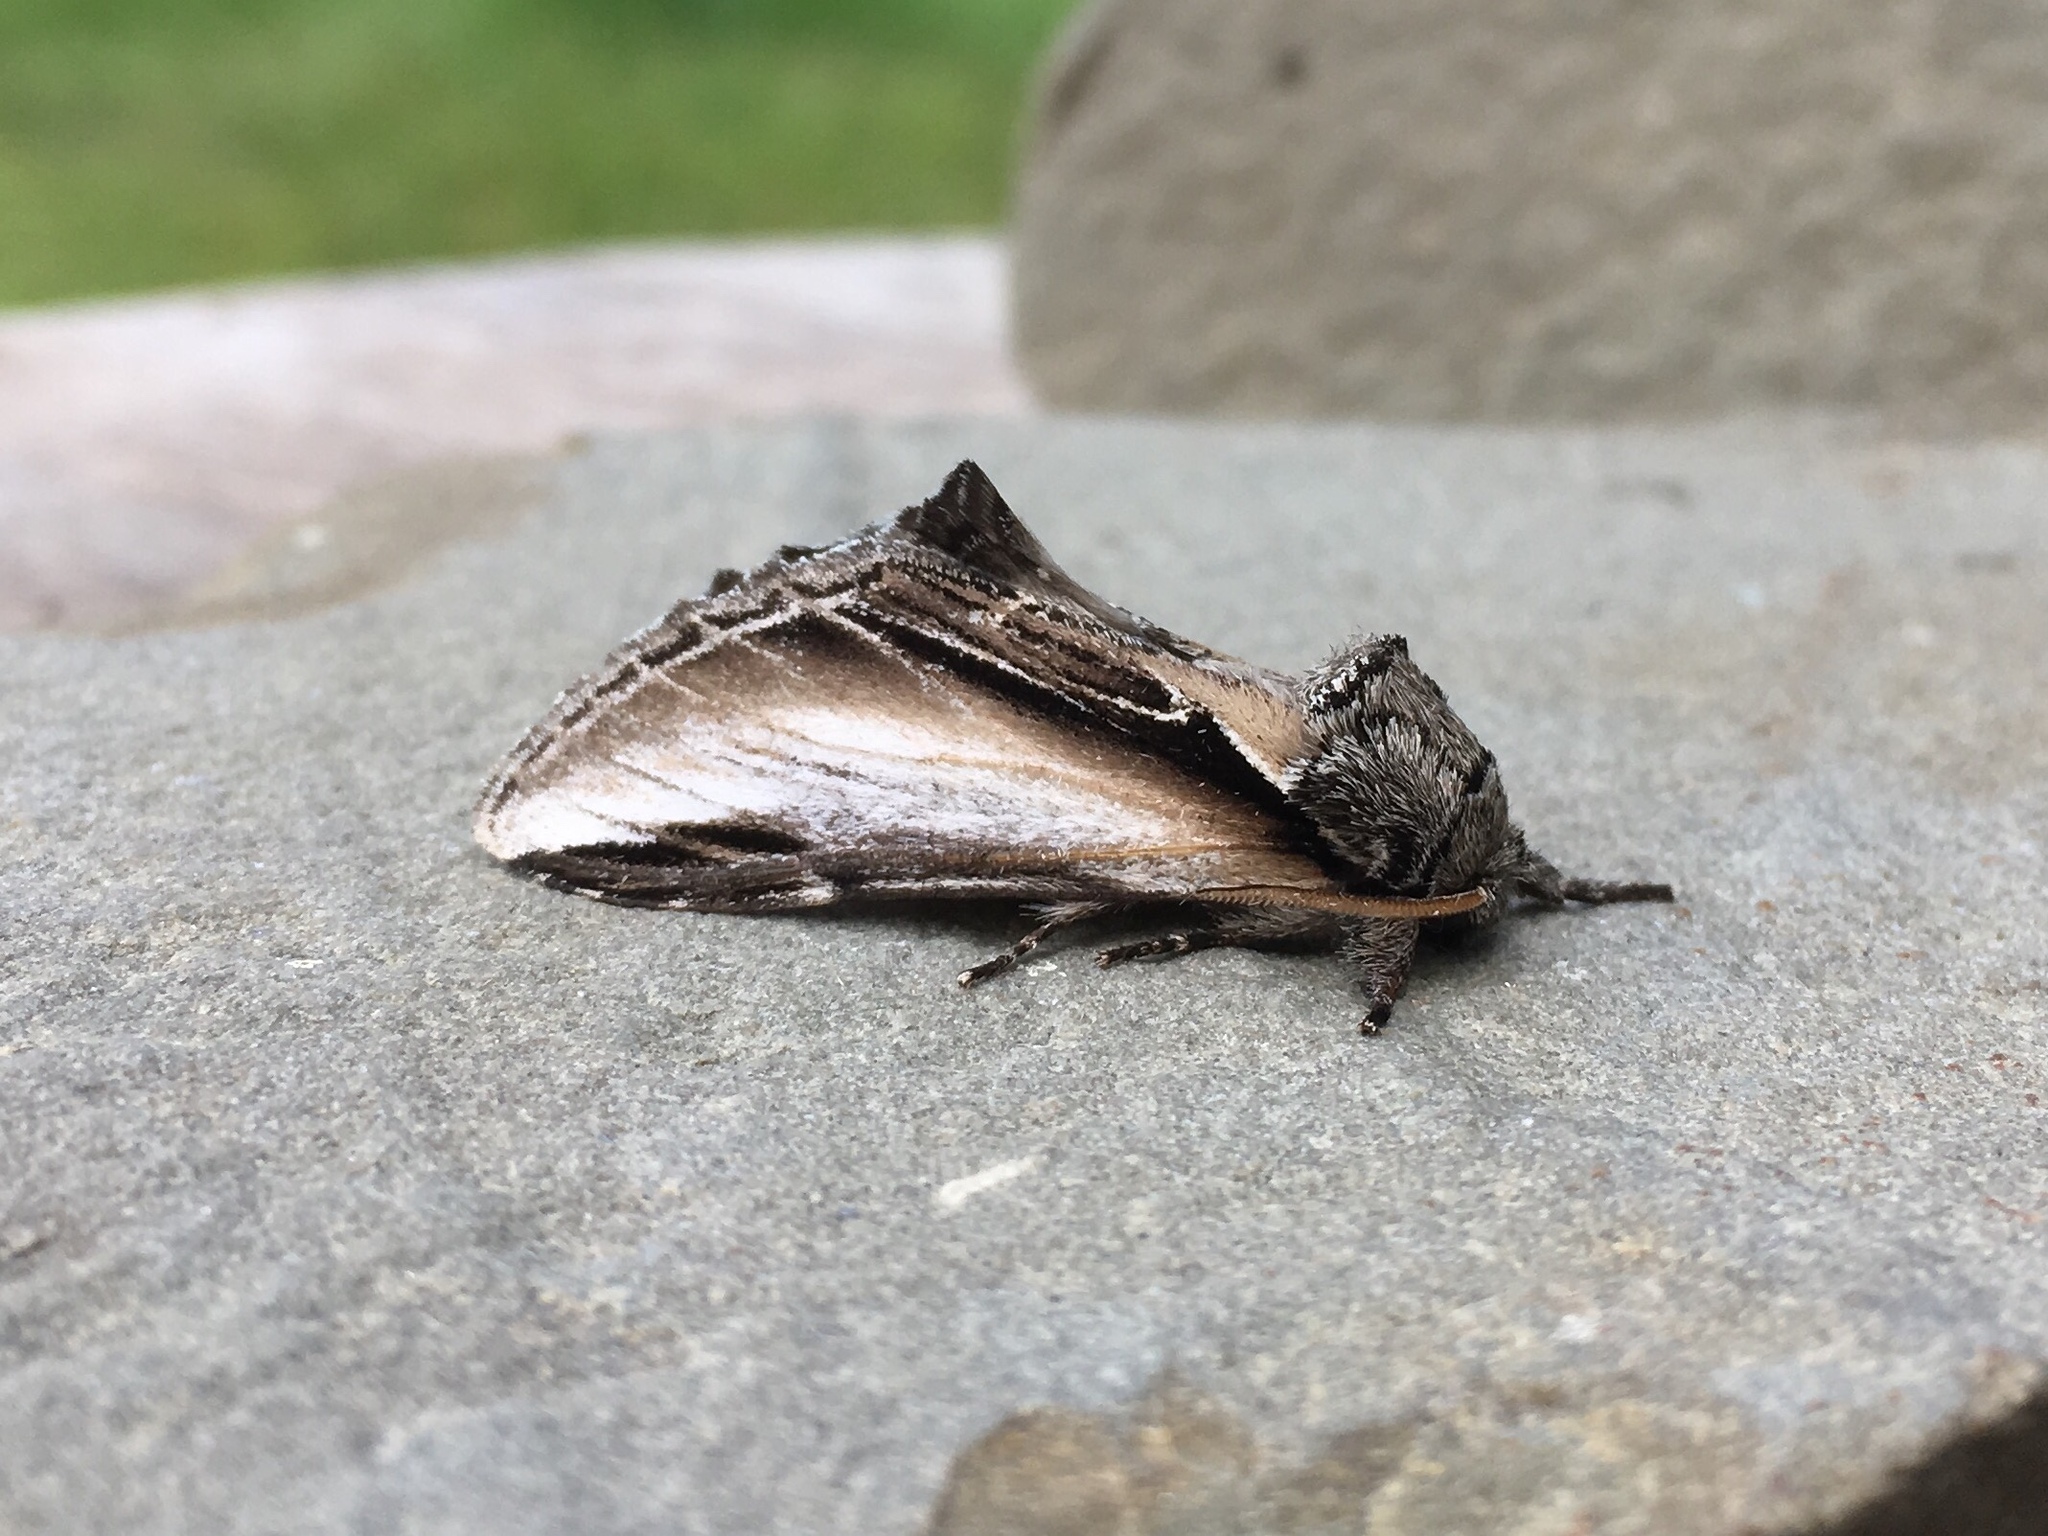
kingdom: Animalia
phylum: Arthropoda
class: Insecta
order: Lepidoptera
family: Notodontidae
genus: Pheosia
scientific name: Pheosia rimosa
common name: Black-rimmed prominent
